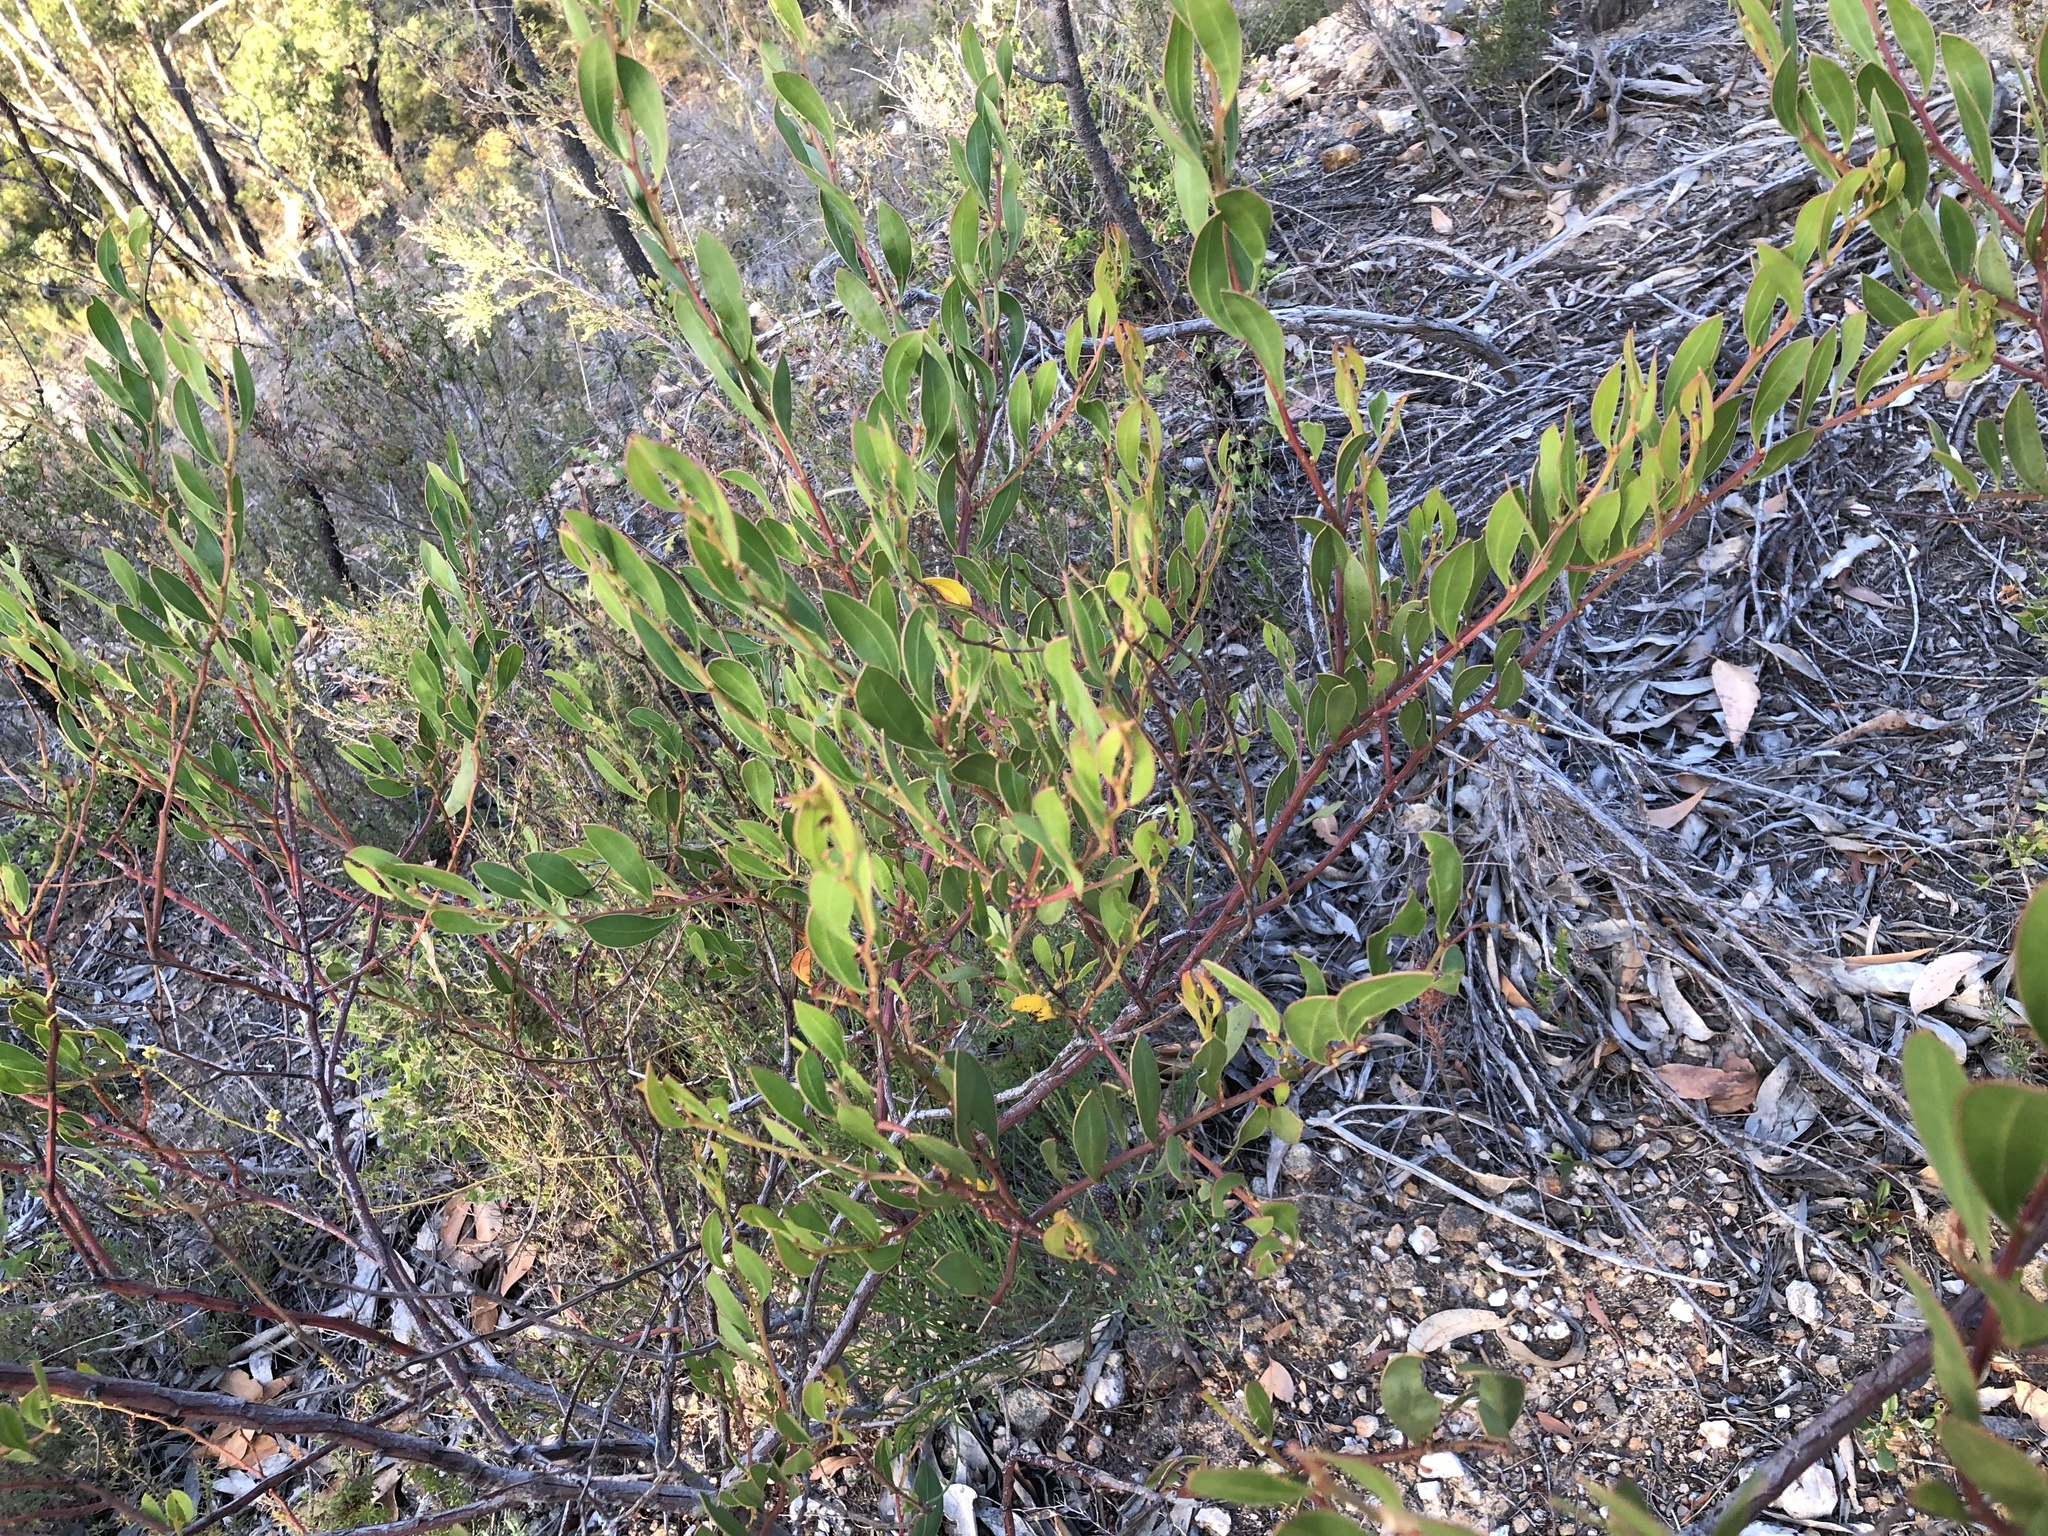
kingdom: Plantae
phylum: Tracheophyta
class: Magnoliopsida
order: Fabales
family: Fabaceae
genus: Acacia
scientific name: Acacia myrtifolia
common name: Myrtle wattle
